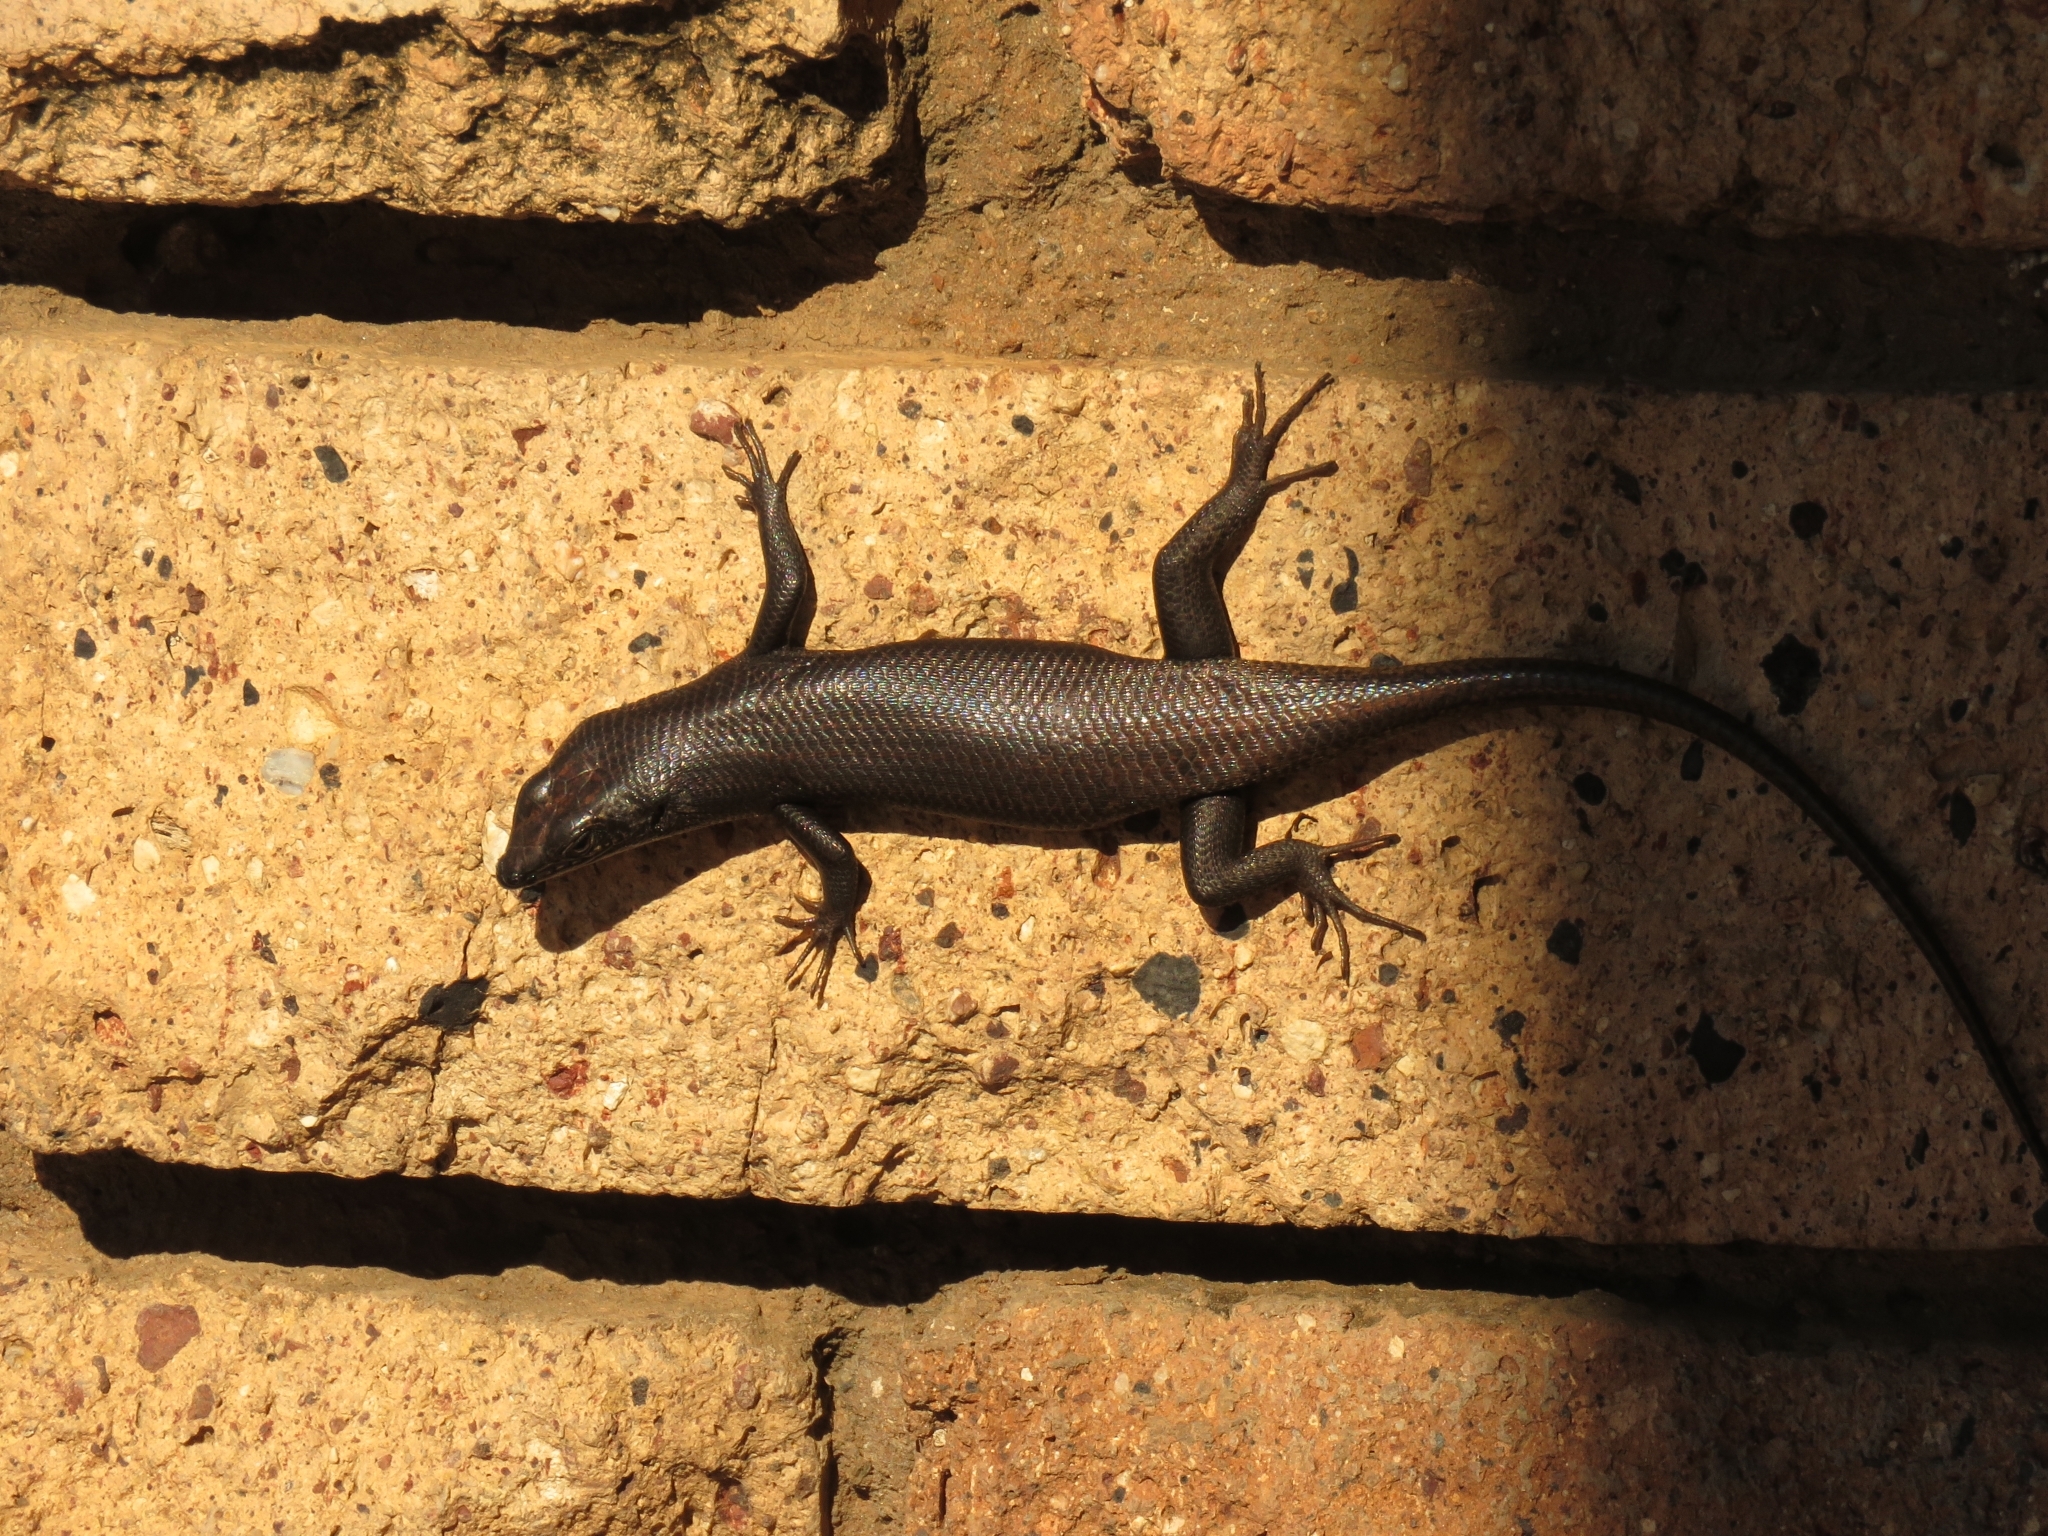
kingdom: Animalia
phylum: Chordata
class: Squamata
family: Scincidae
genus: Trachylepis
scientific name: Trachylepis sulcata
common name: Western rock skink
